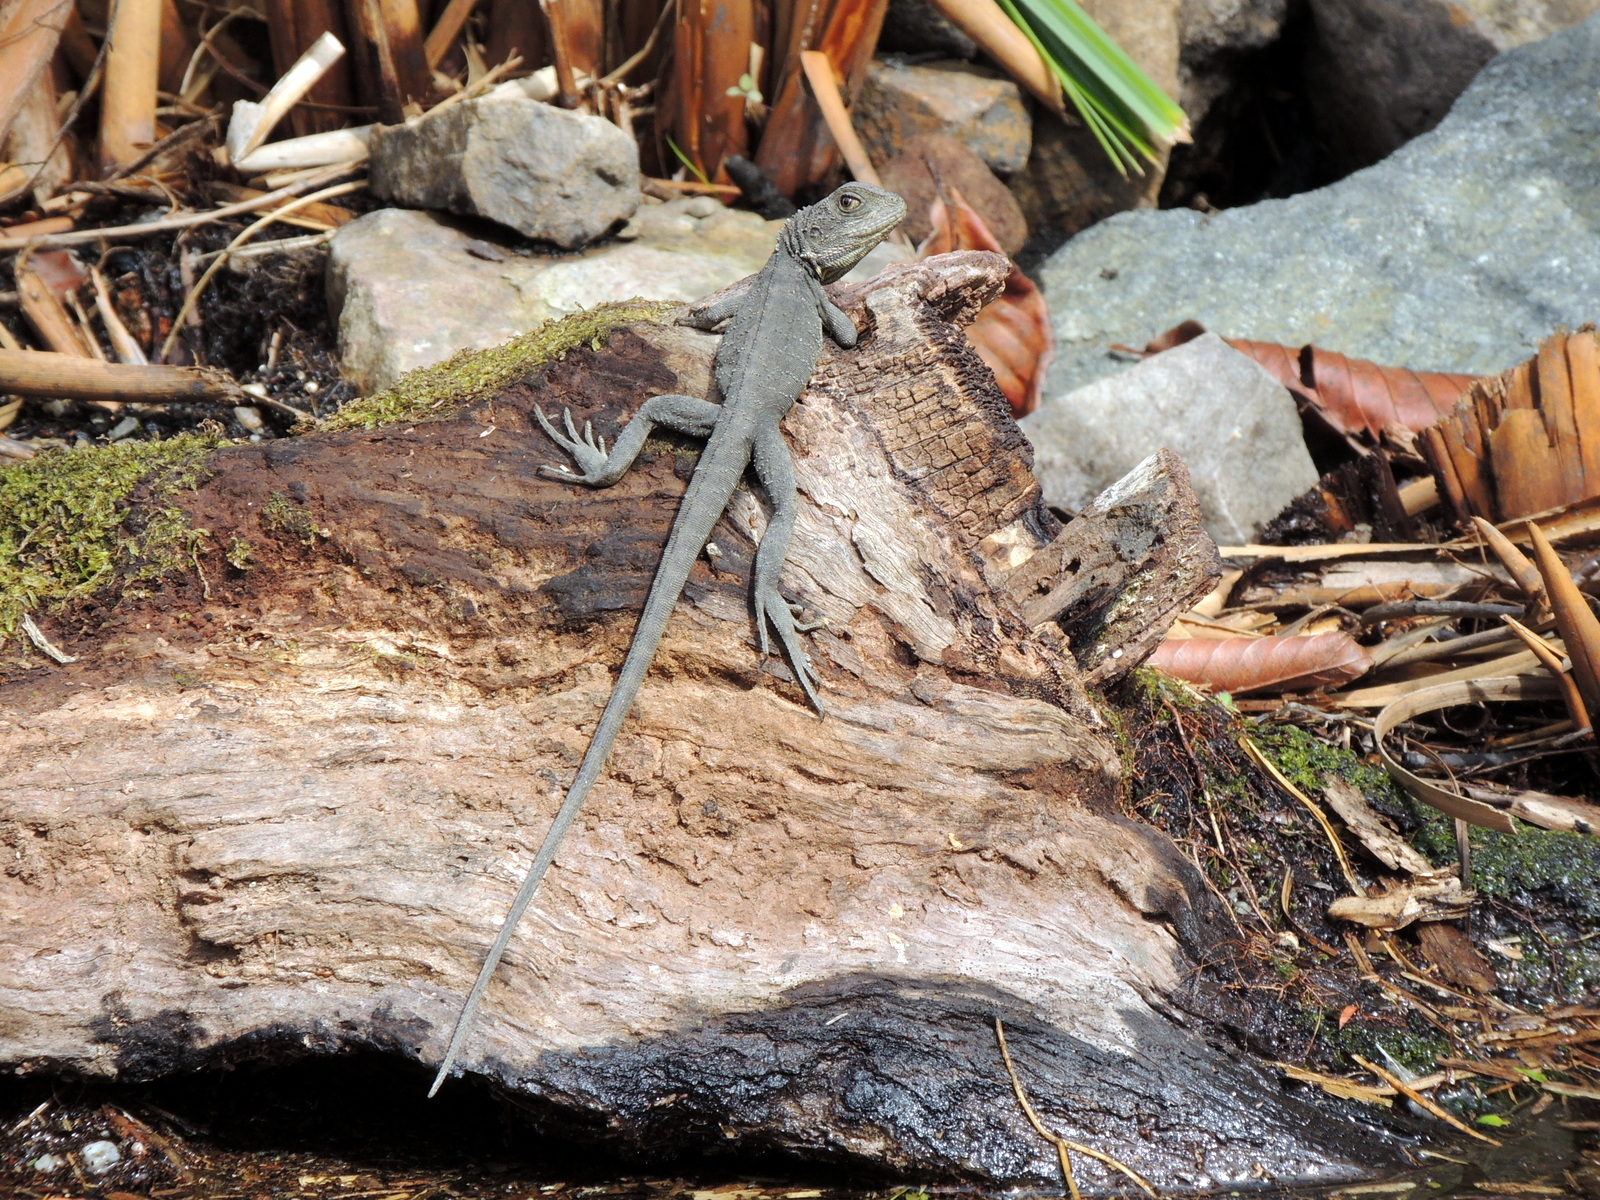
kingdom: Animalia
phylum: Chordata
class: Squamata
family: Agamidae
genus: Intellagama
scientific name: Intellagama lesueurii
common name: Eastern water dragon
